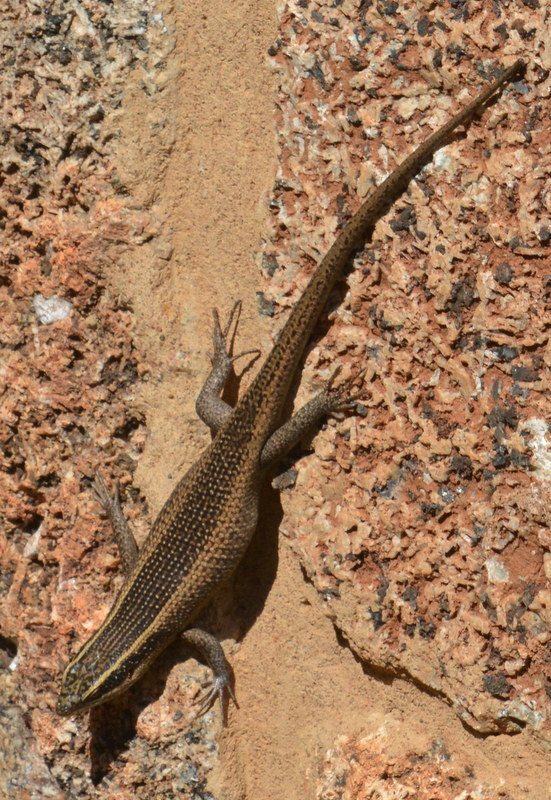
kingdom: Animalia
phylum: Chordata
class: Squamata
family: Scincidae
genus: Trachylepis
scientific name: Trachylepis punctatissima
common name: Montane speckled skink
